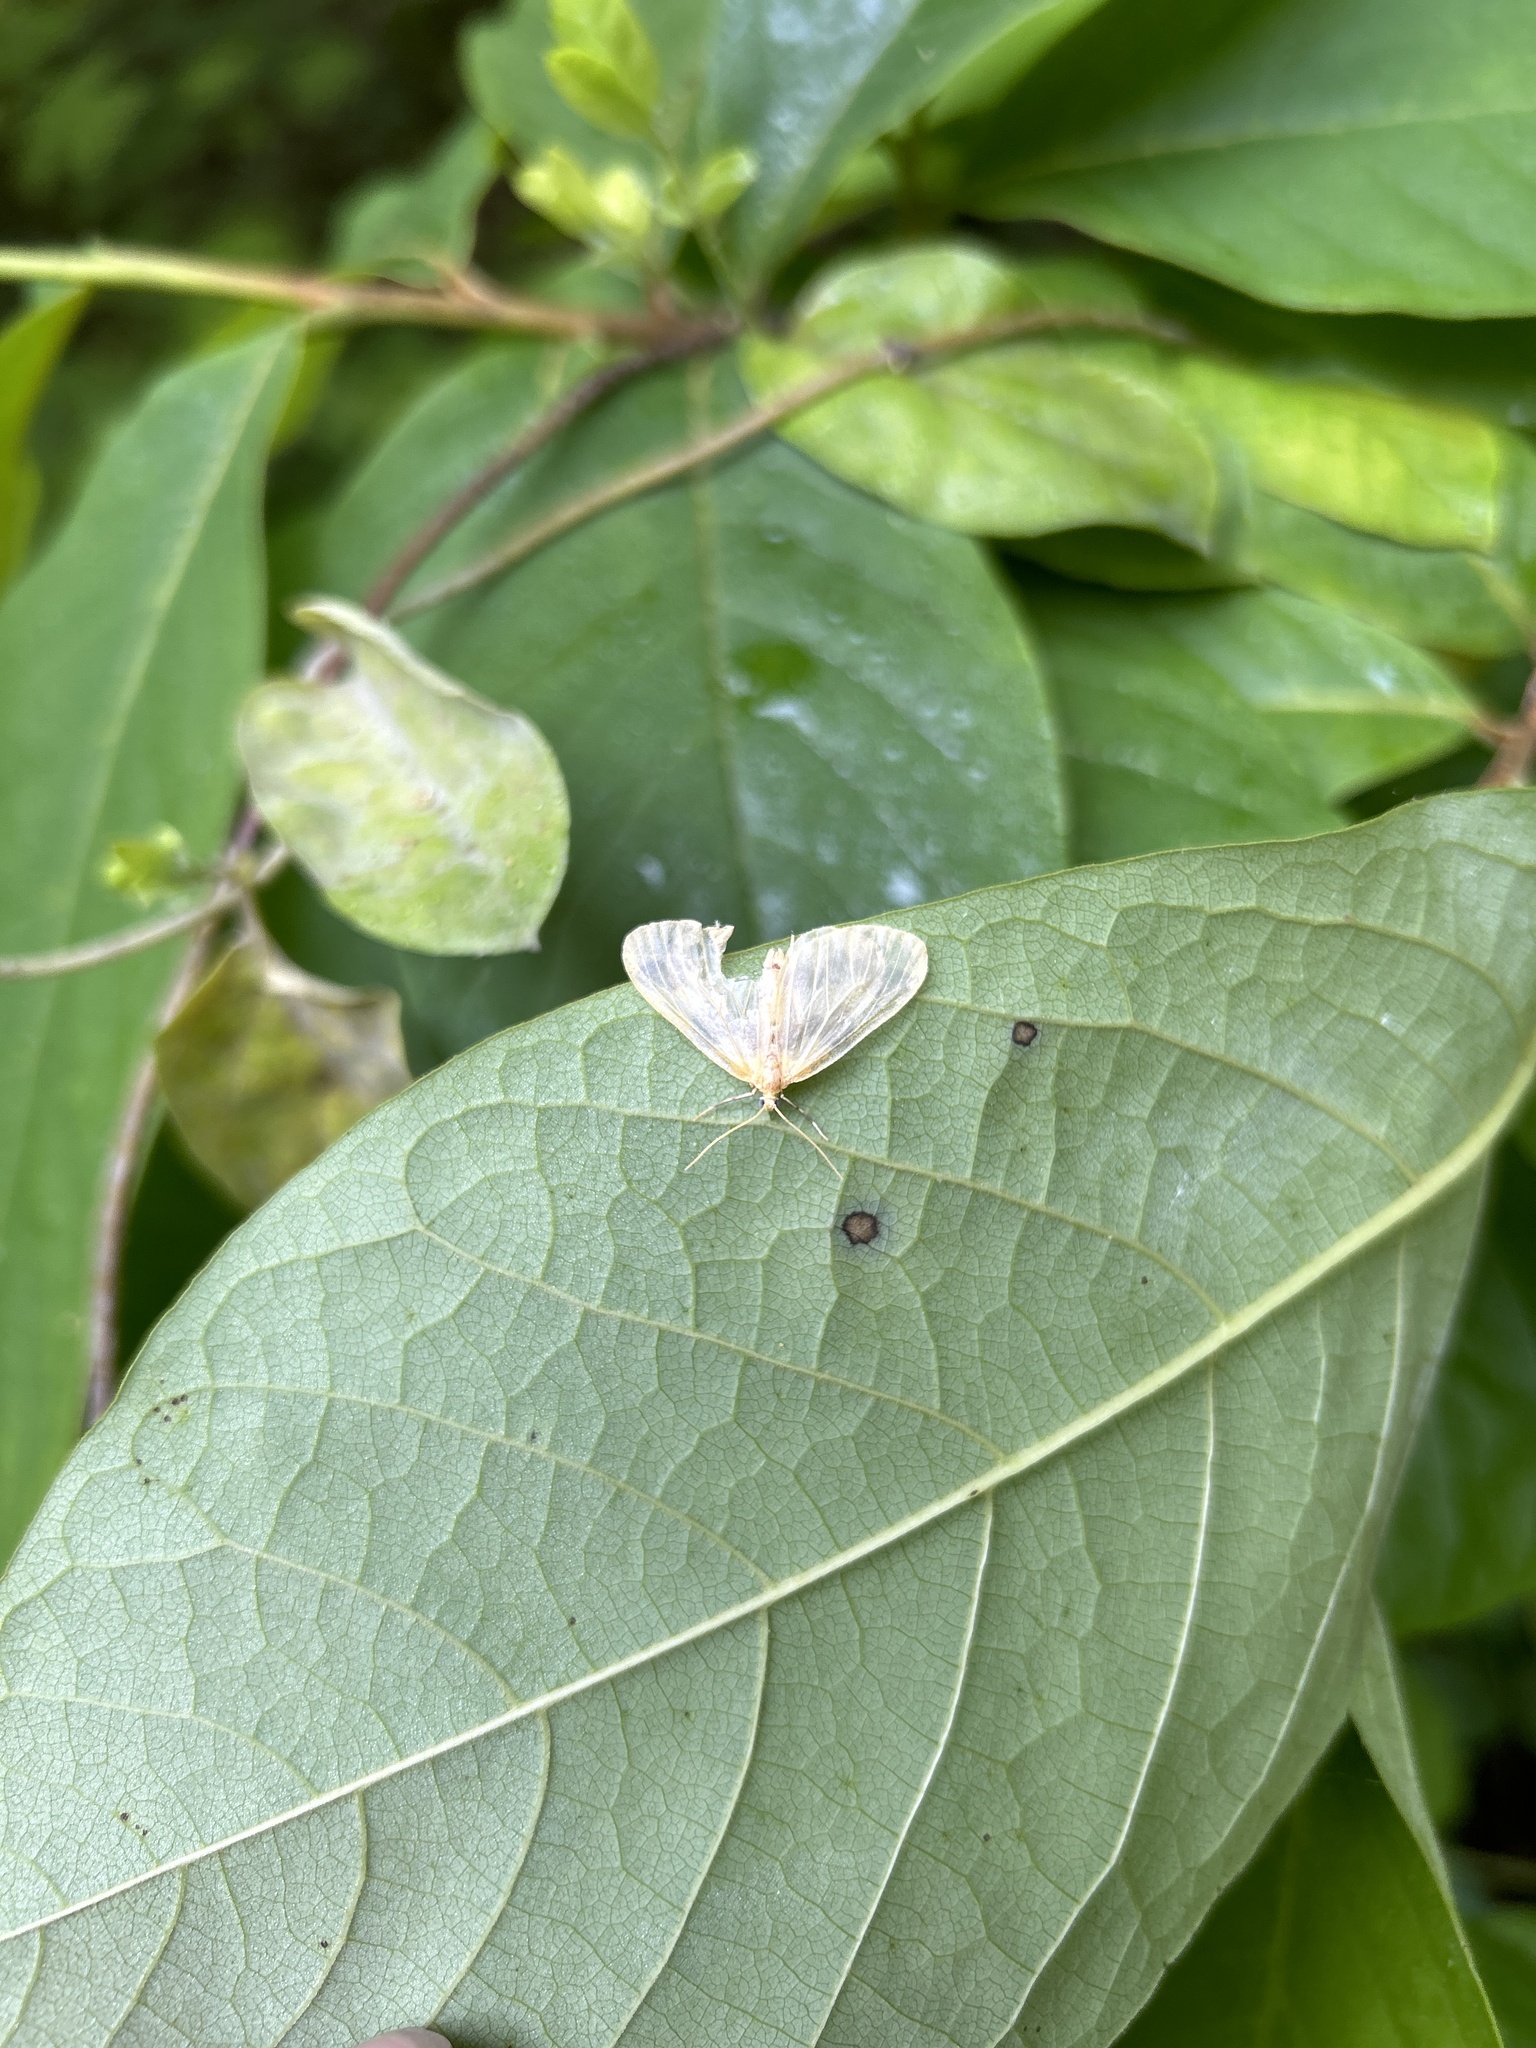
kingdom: Animalia
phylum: Arthropoda
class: Insecta
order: Lepidoptera
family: Geometridae
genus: Eubaphe
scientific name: Eubaphe mendica
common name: Beggar
